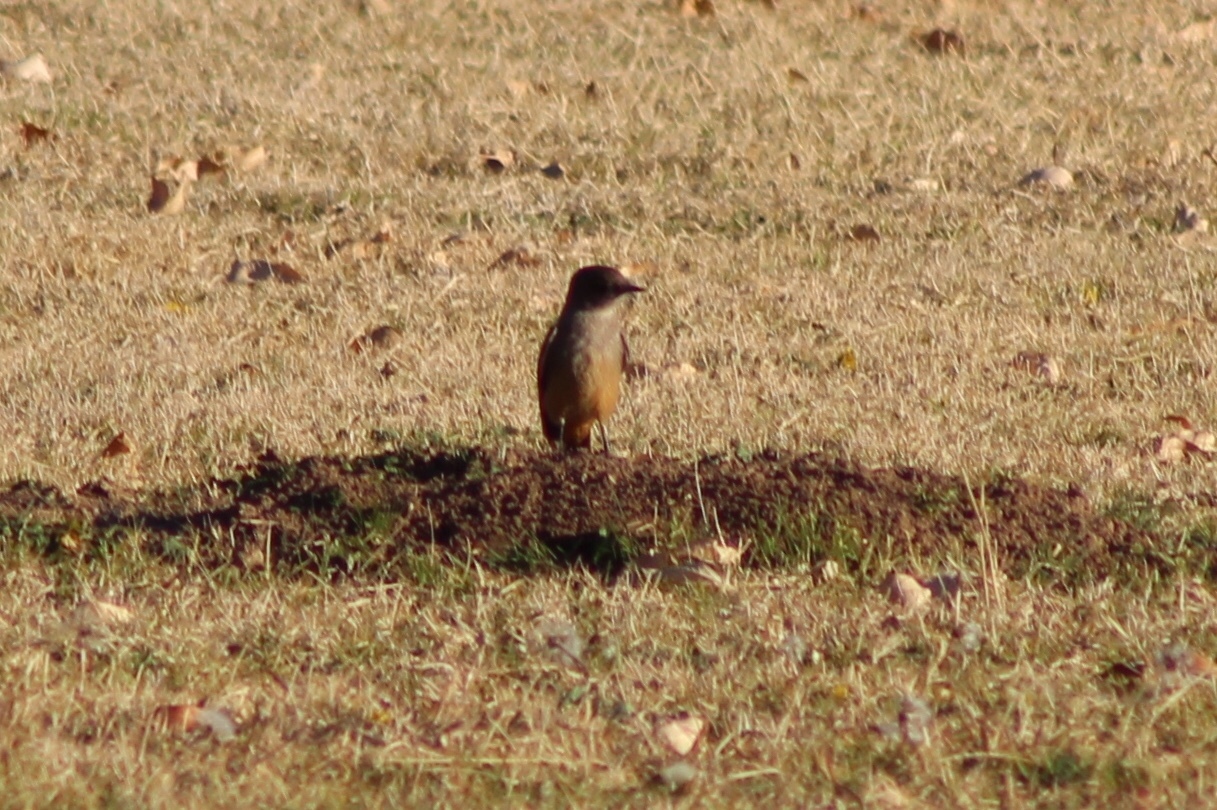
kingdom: Animalia
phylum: Chordata
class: Aves
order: Passeriformes
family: Tyrannidae
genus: Sayornis
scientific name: Sayornis saya
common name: Say's phoebe
